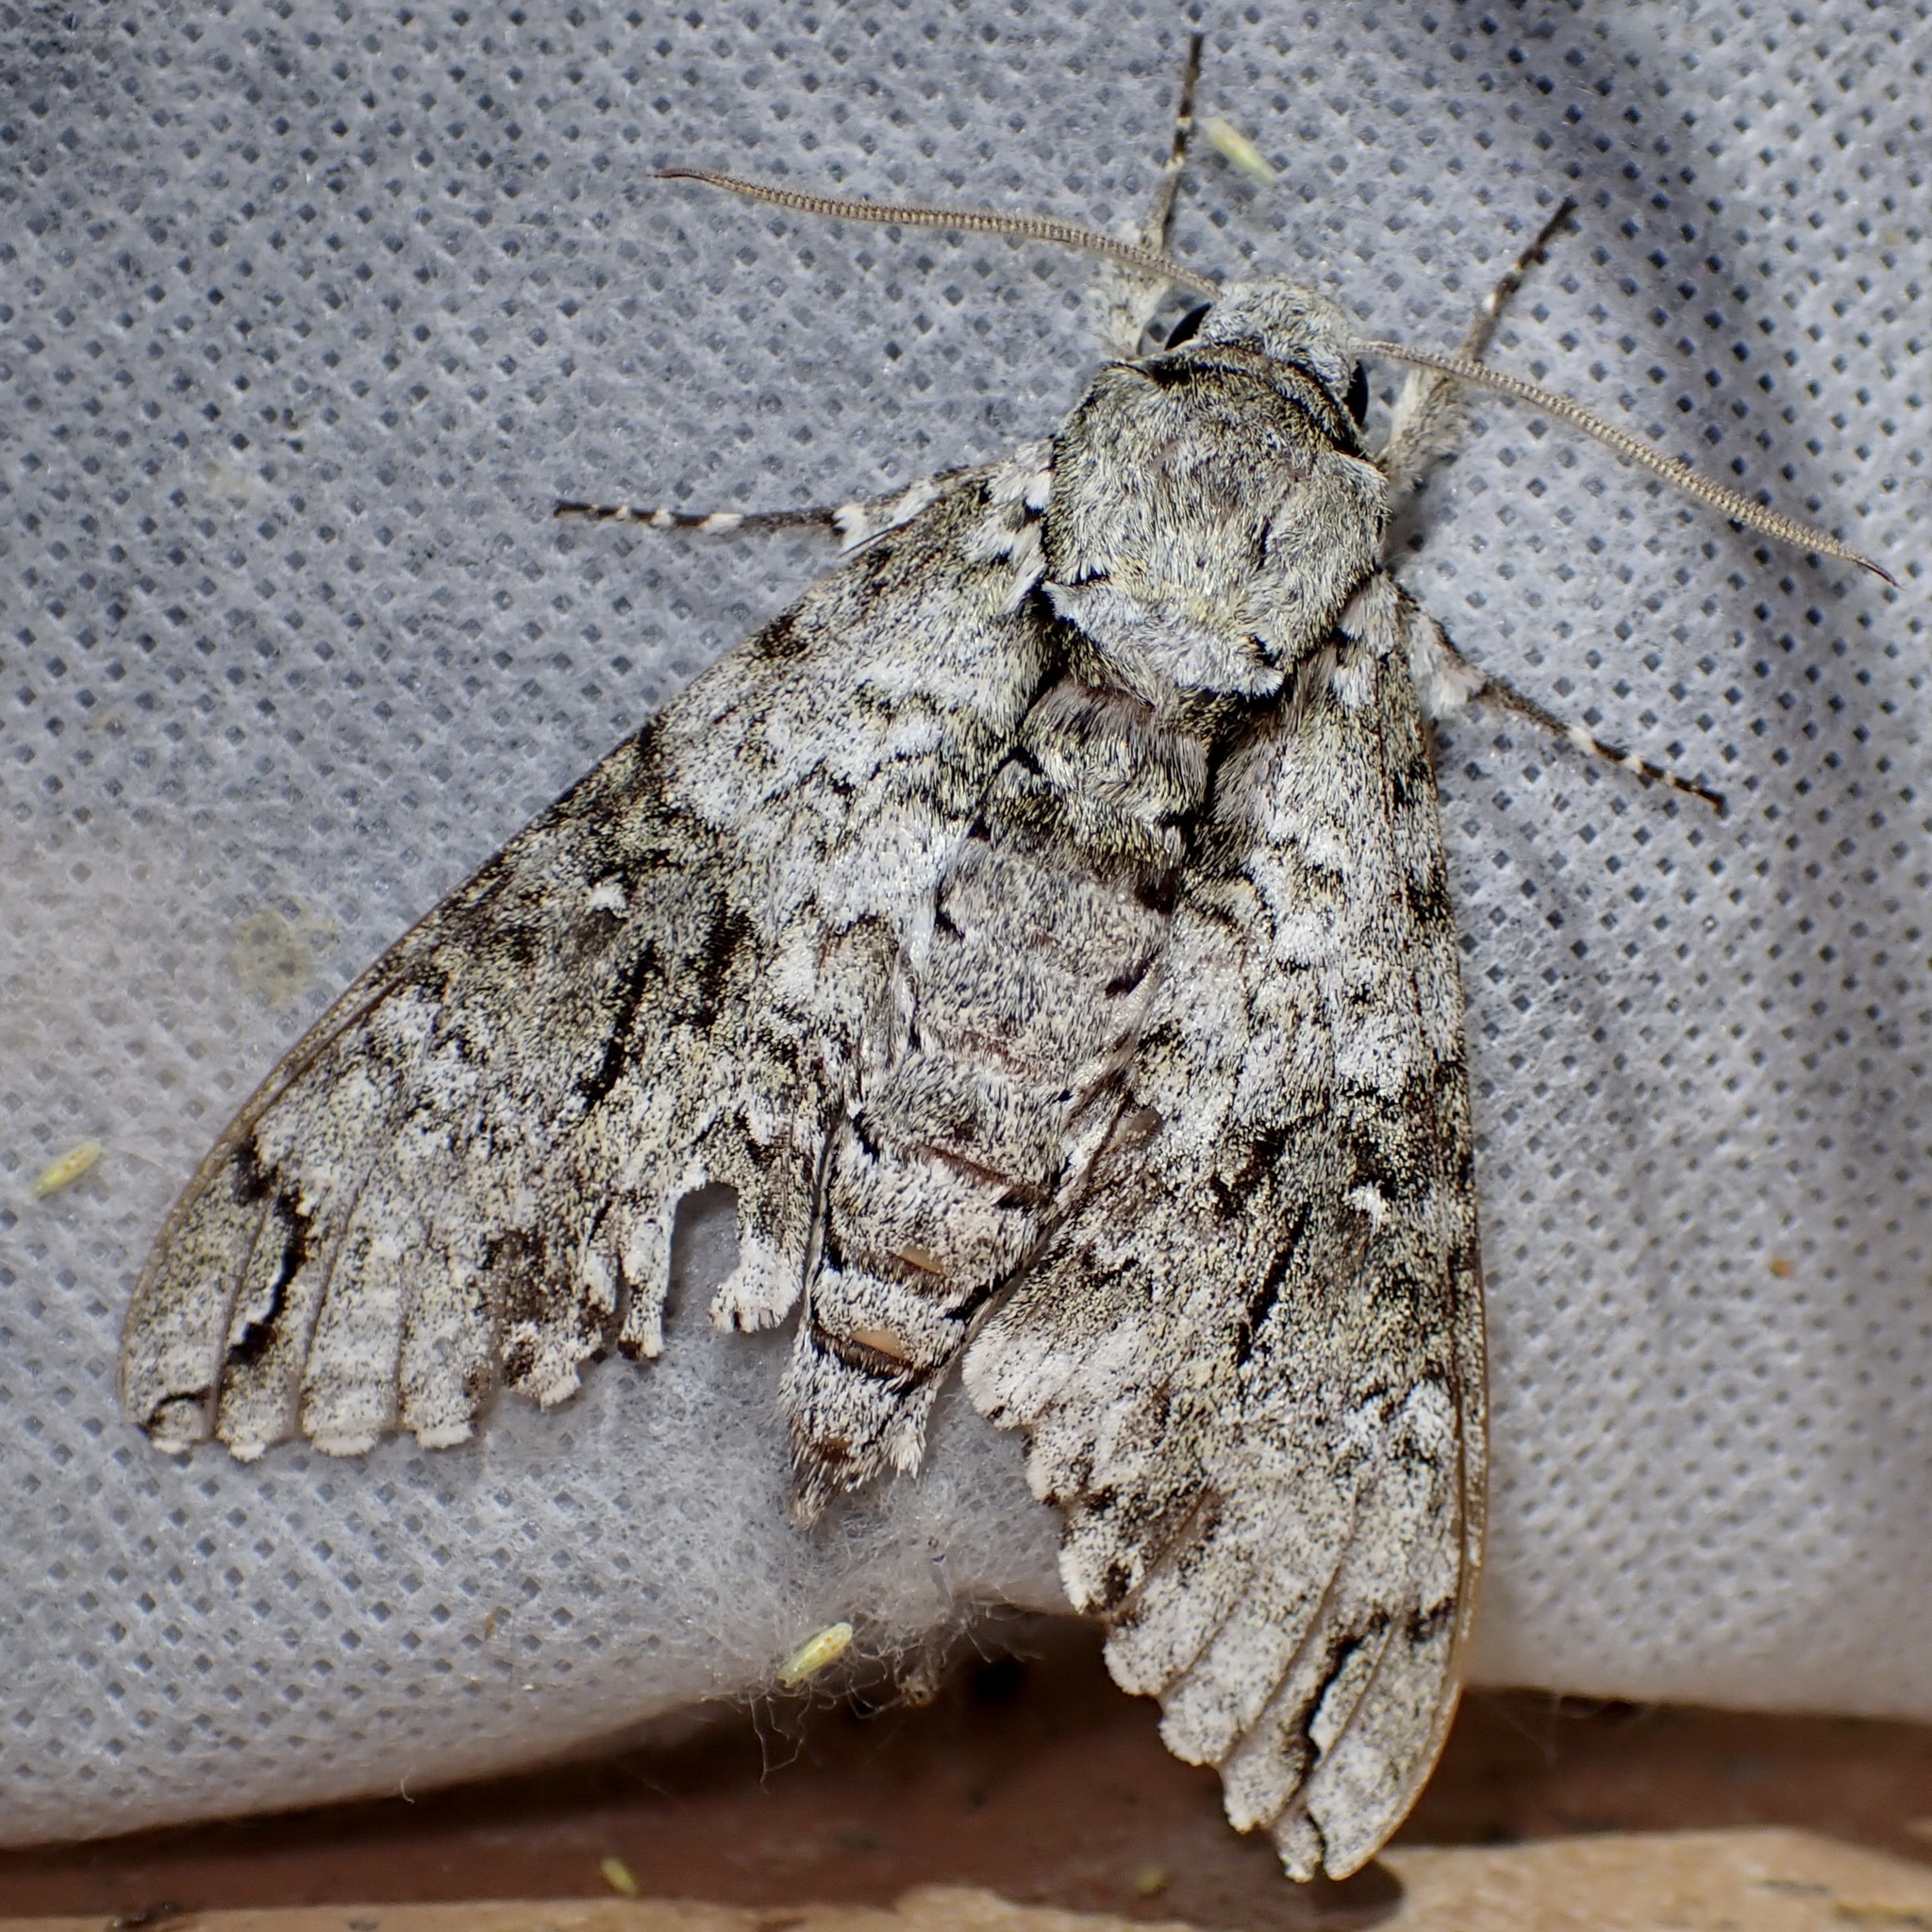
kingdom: Animalia
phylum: Arthropoda
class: Insecta
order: Lepidoptera
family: Sphingidae
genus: Manduca
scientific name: Manduca florestan
